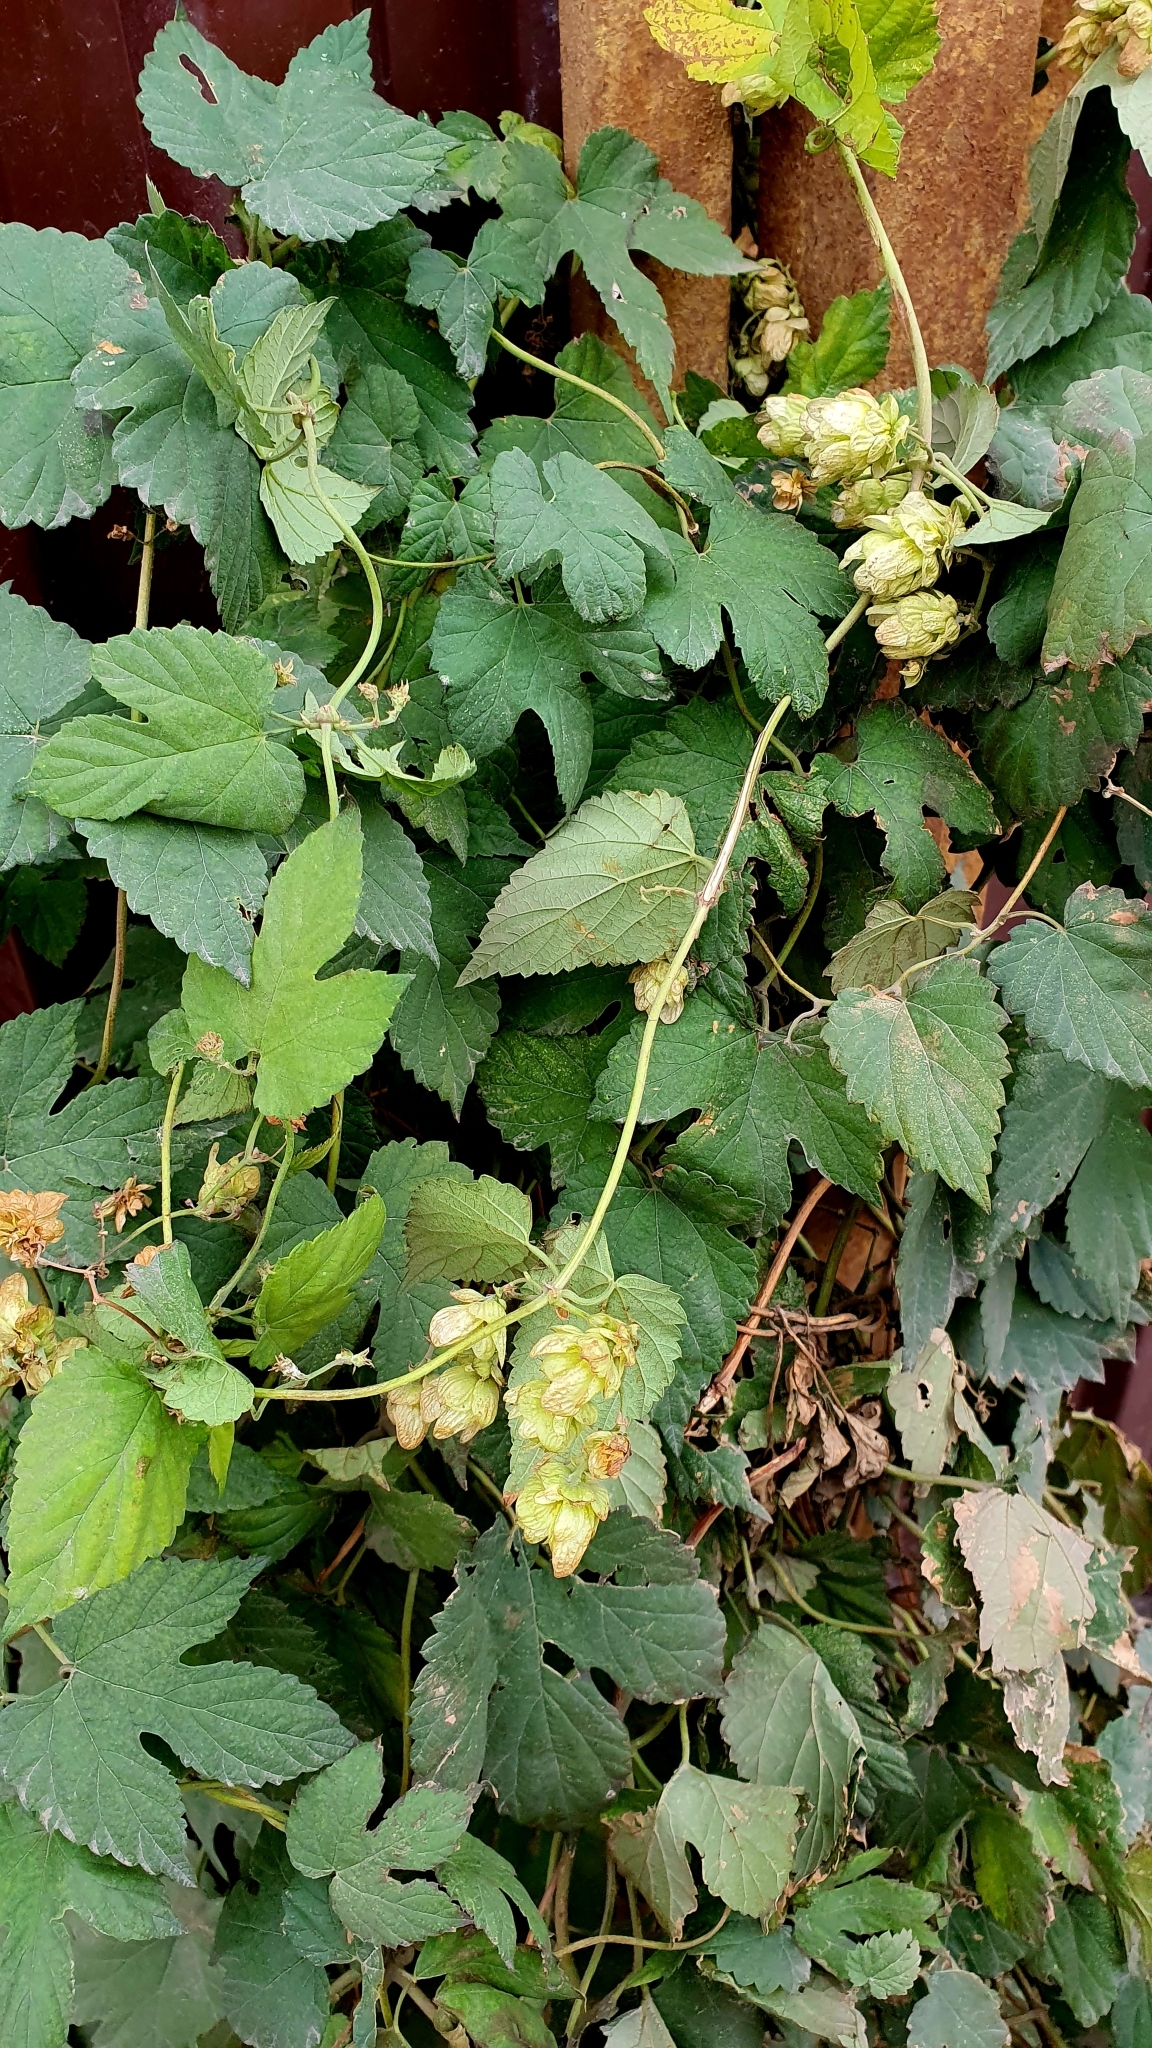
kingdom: Plantae
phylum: Tracheophyta
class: Magnoliopsida
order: Rosales
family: Cannabaceae
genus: Humulus
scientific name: Humulus lupulus
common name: Hop
